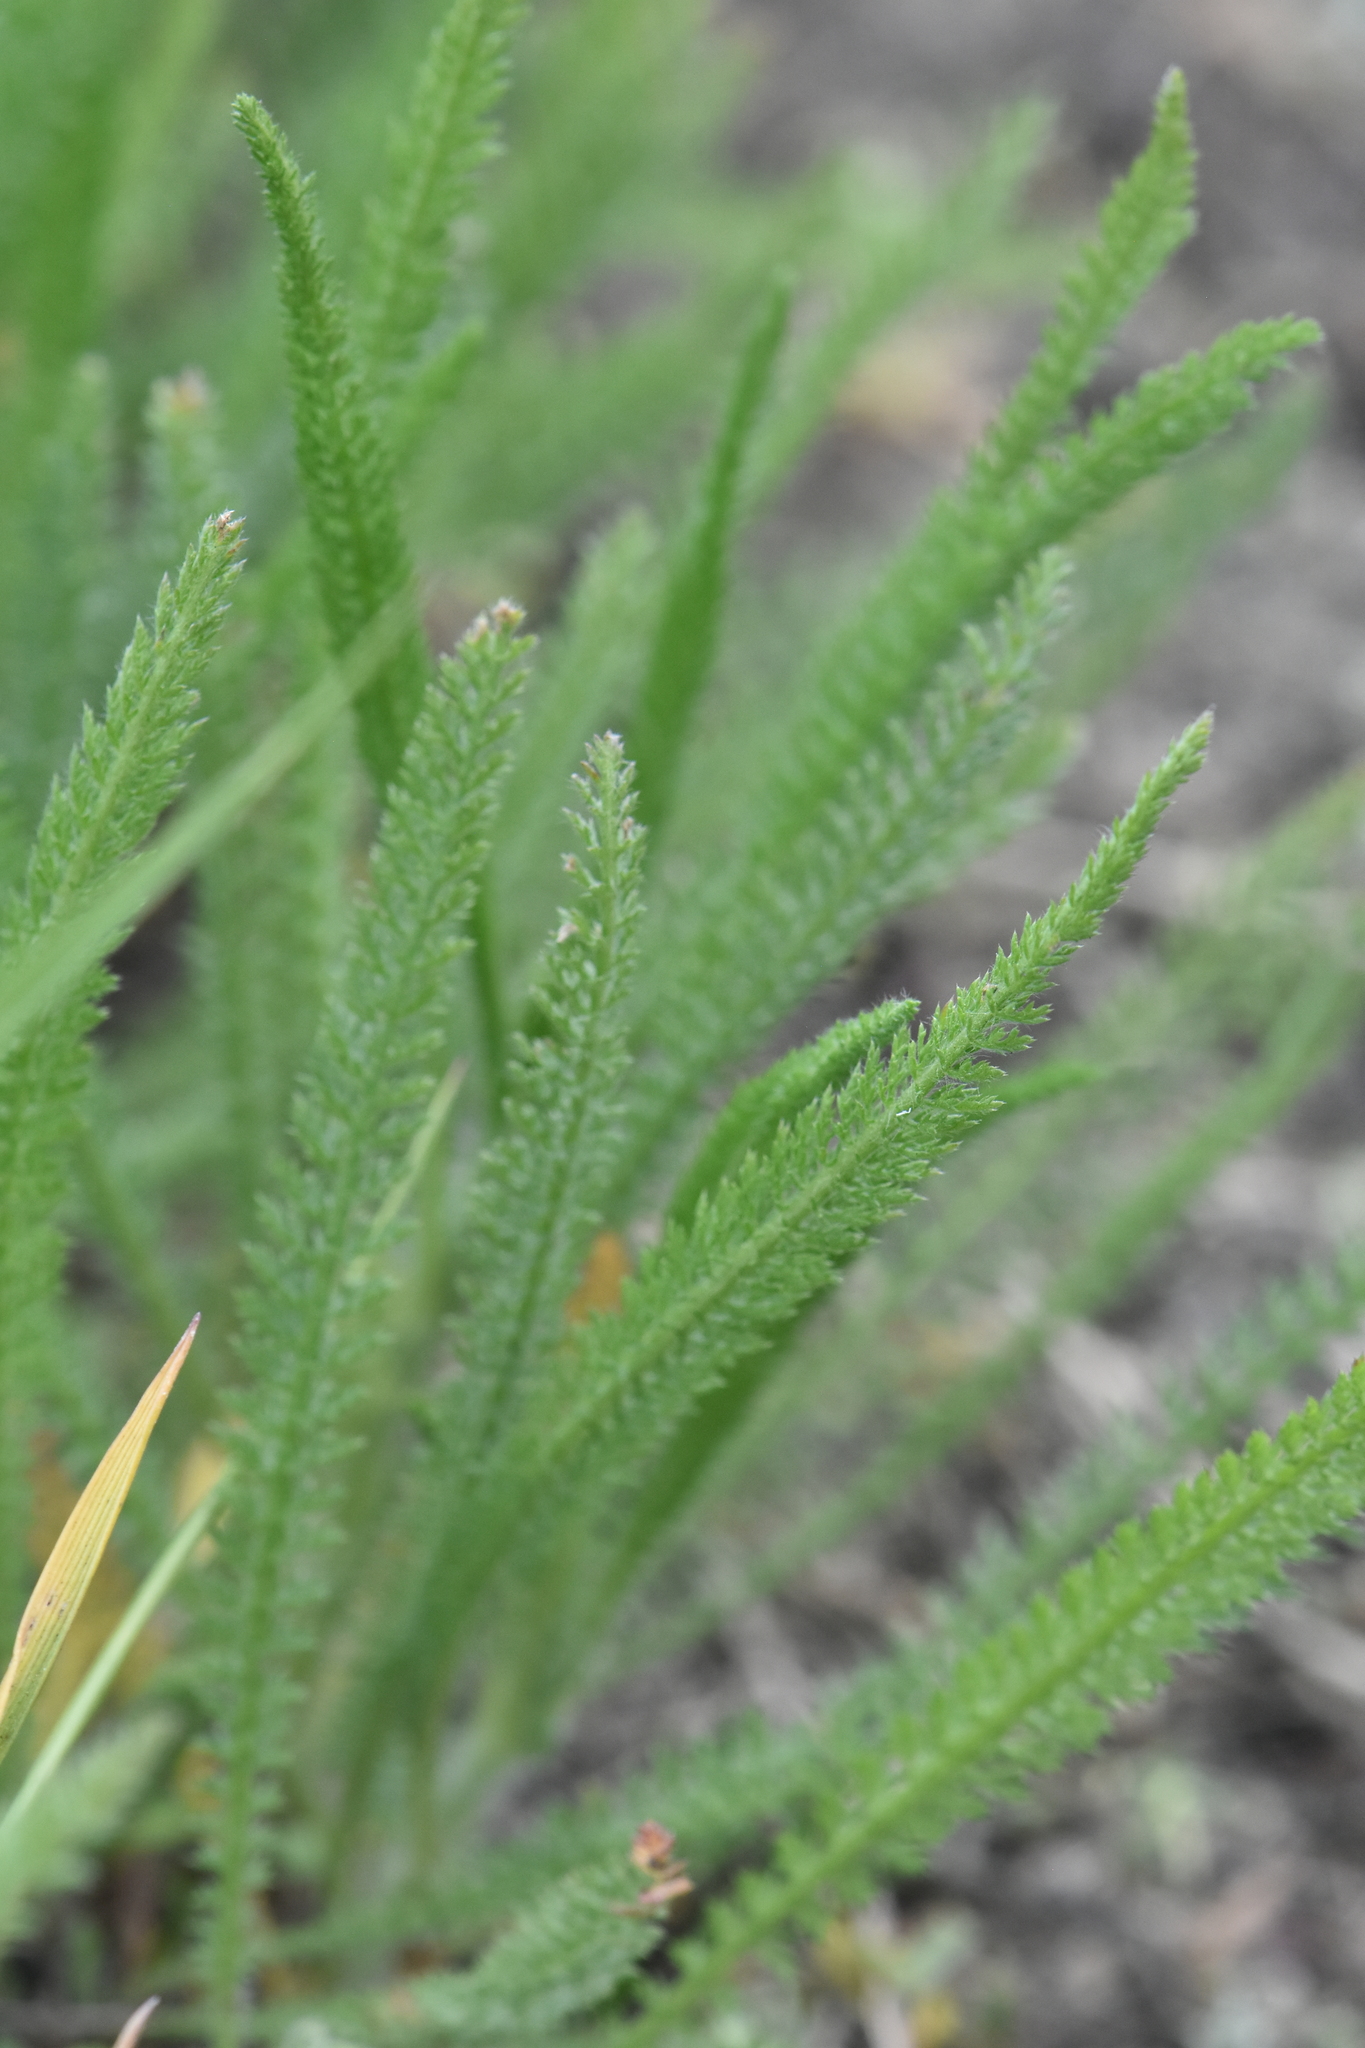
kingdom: Plantae
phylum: Tracheophyta
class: Magnoliopsida
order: Asterales
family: Asteraceae
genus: Achillea
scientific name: Achillea millefolium
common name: Yarrow
